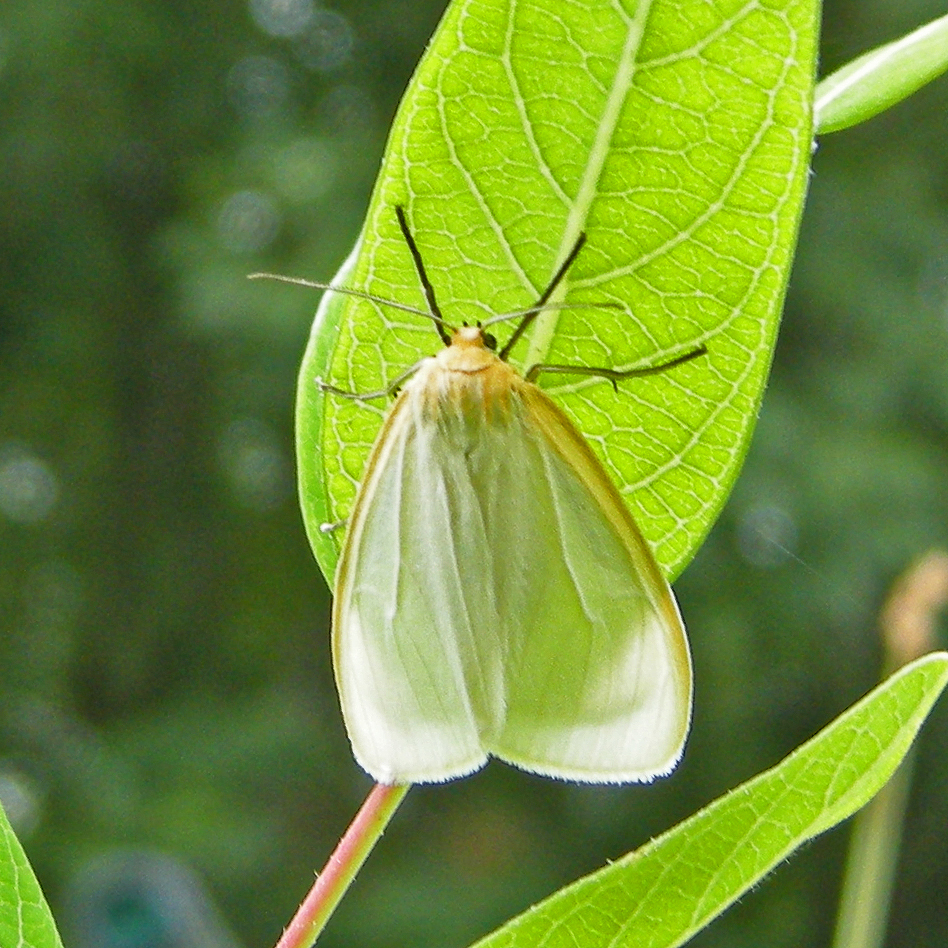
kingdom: Animalia
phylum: Arthropoda
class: Insecta
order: Lepidoptera
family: Erebidae
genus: Cycnia
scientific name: Cycnia tenera
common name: Delicate cycnia moth
